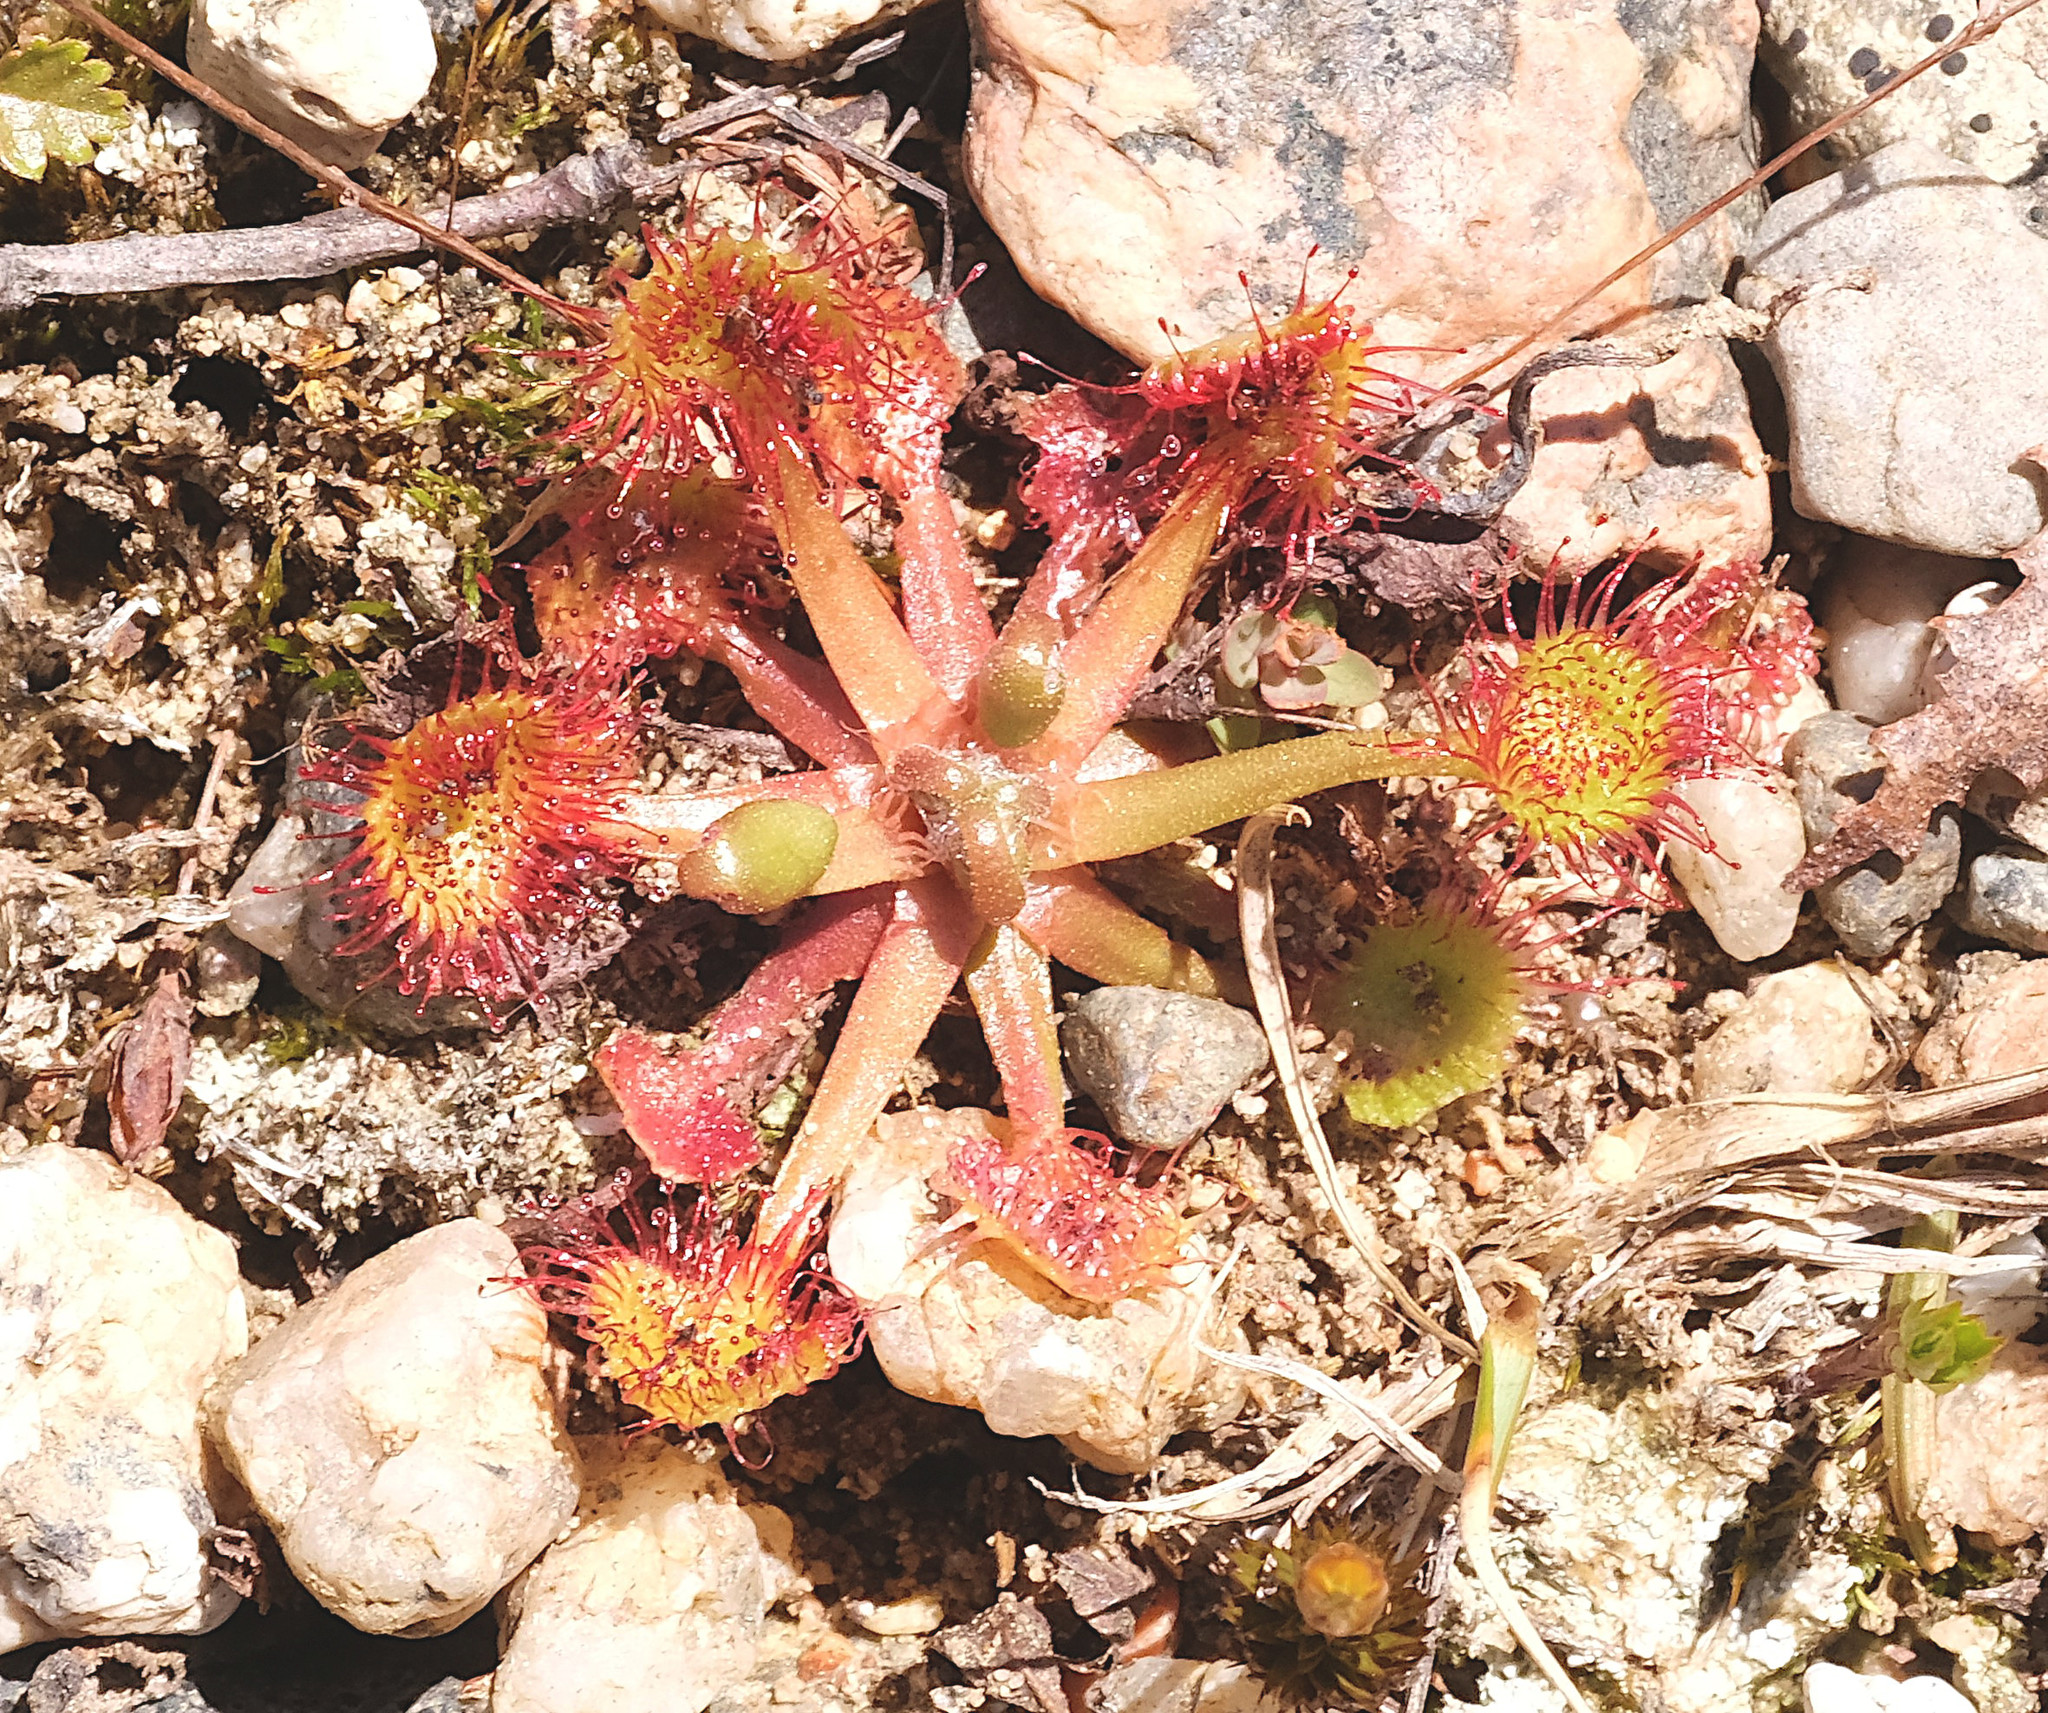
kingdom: Plantae
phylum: Tracheophyta
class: Magnoliopsida
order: Caryophyllales
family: Droseraceae
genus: Drosera
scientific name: Drosera rotundifolia
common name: Round-leaved sundew
